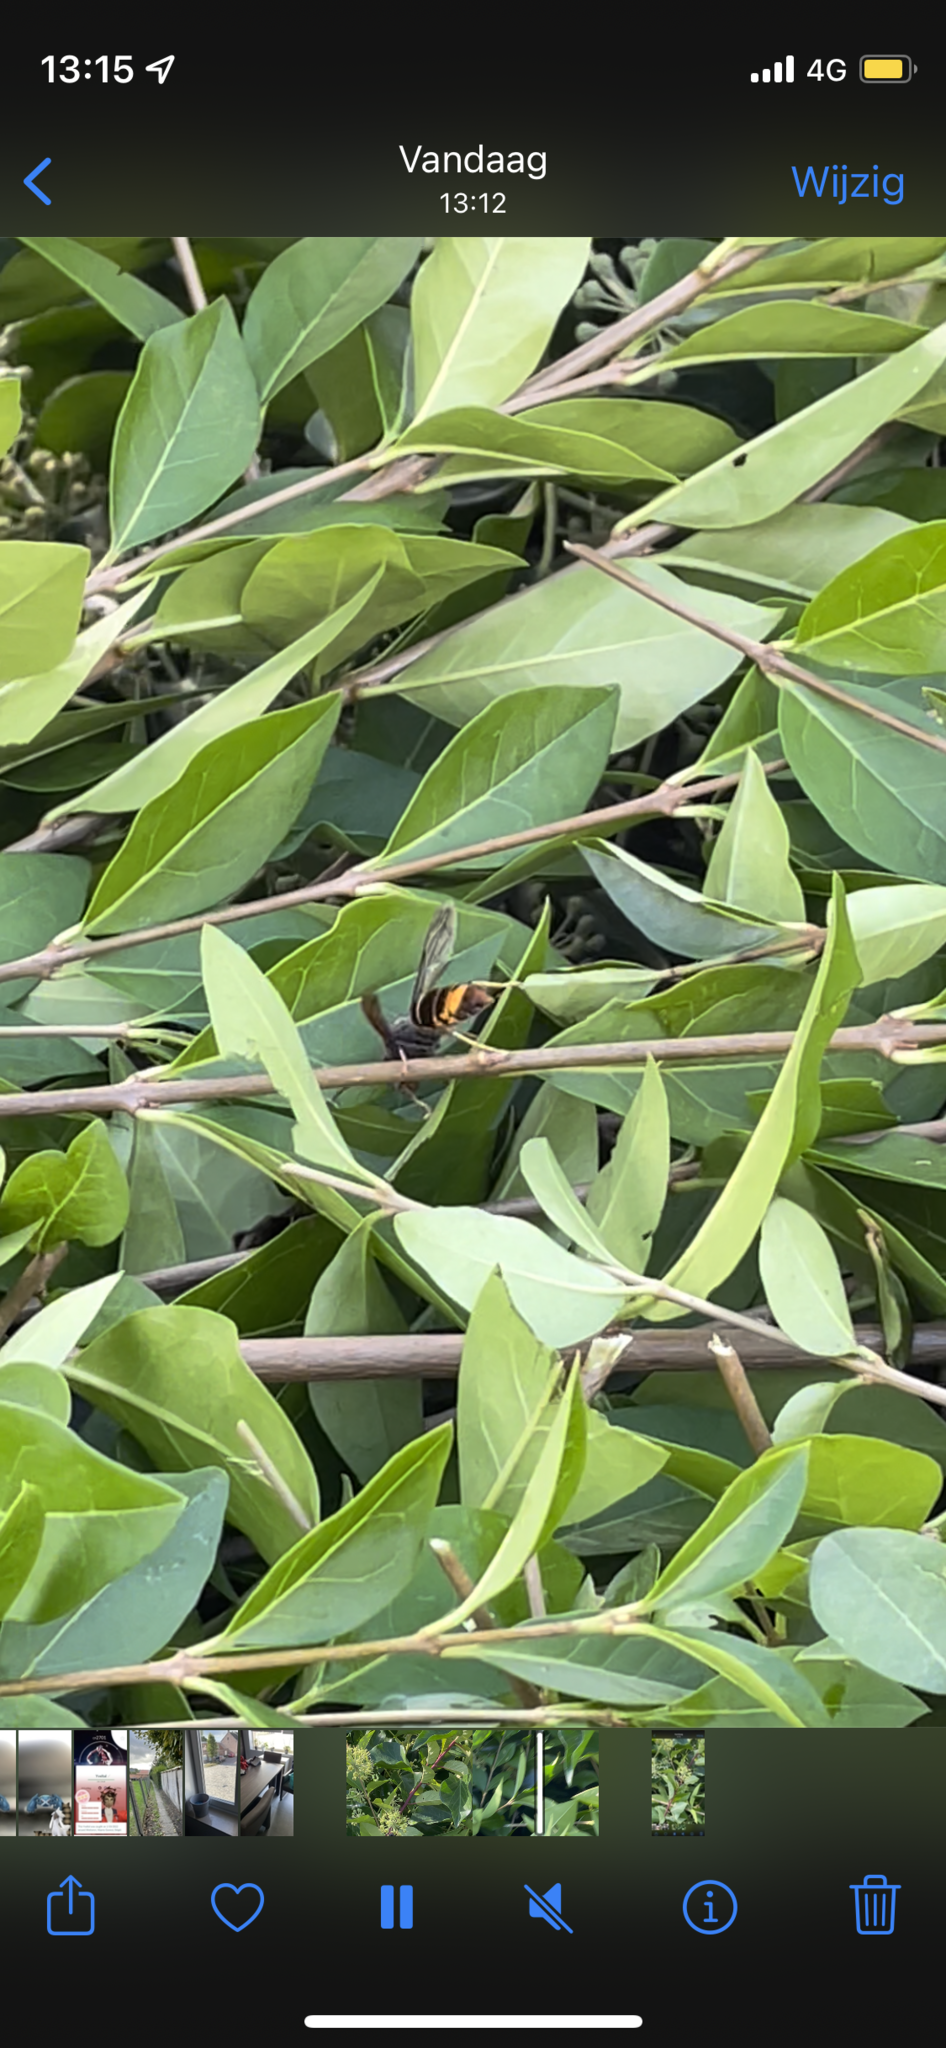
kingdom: Animalia
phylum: Arthropoda
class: Insecta
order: Hymenoptera
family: Vespidae
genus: Vespa
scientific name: Vespa velutina
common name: Asian hornet
